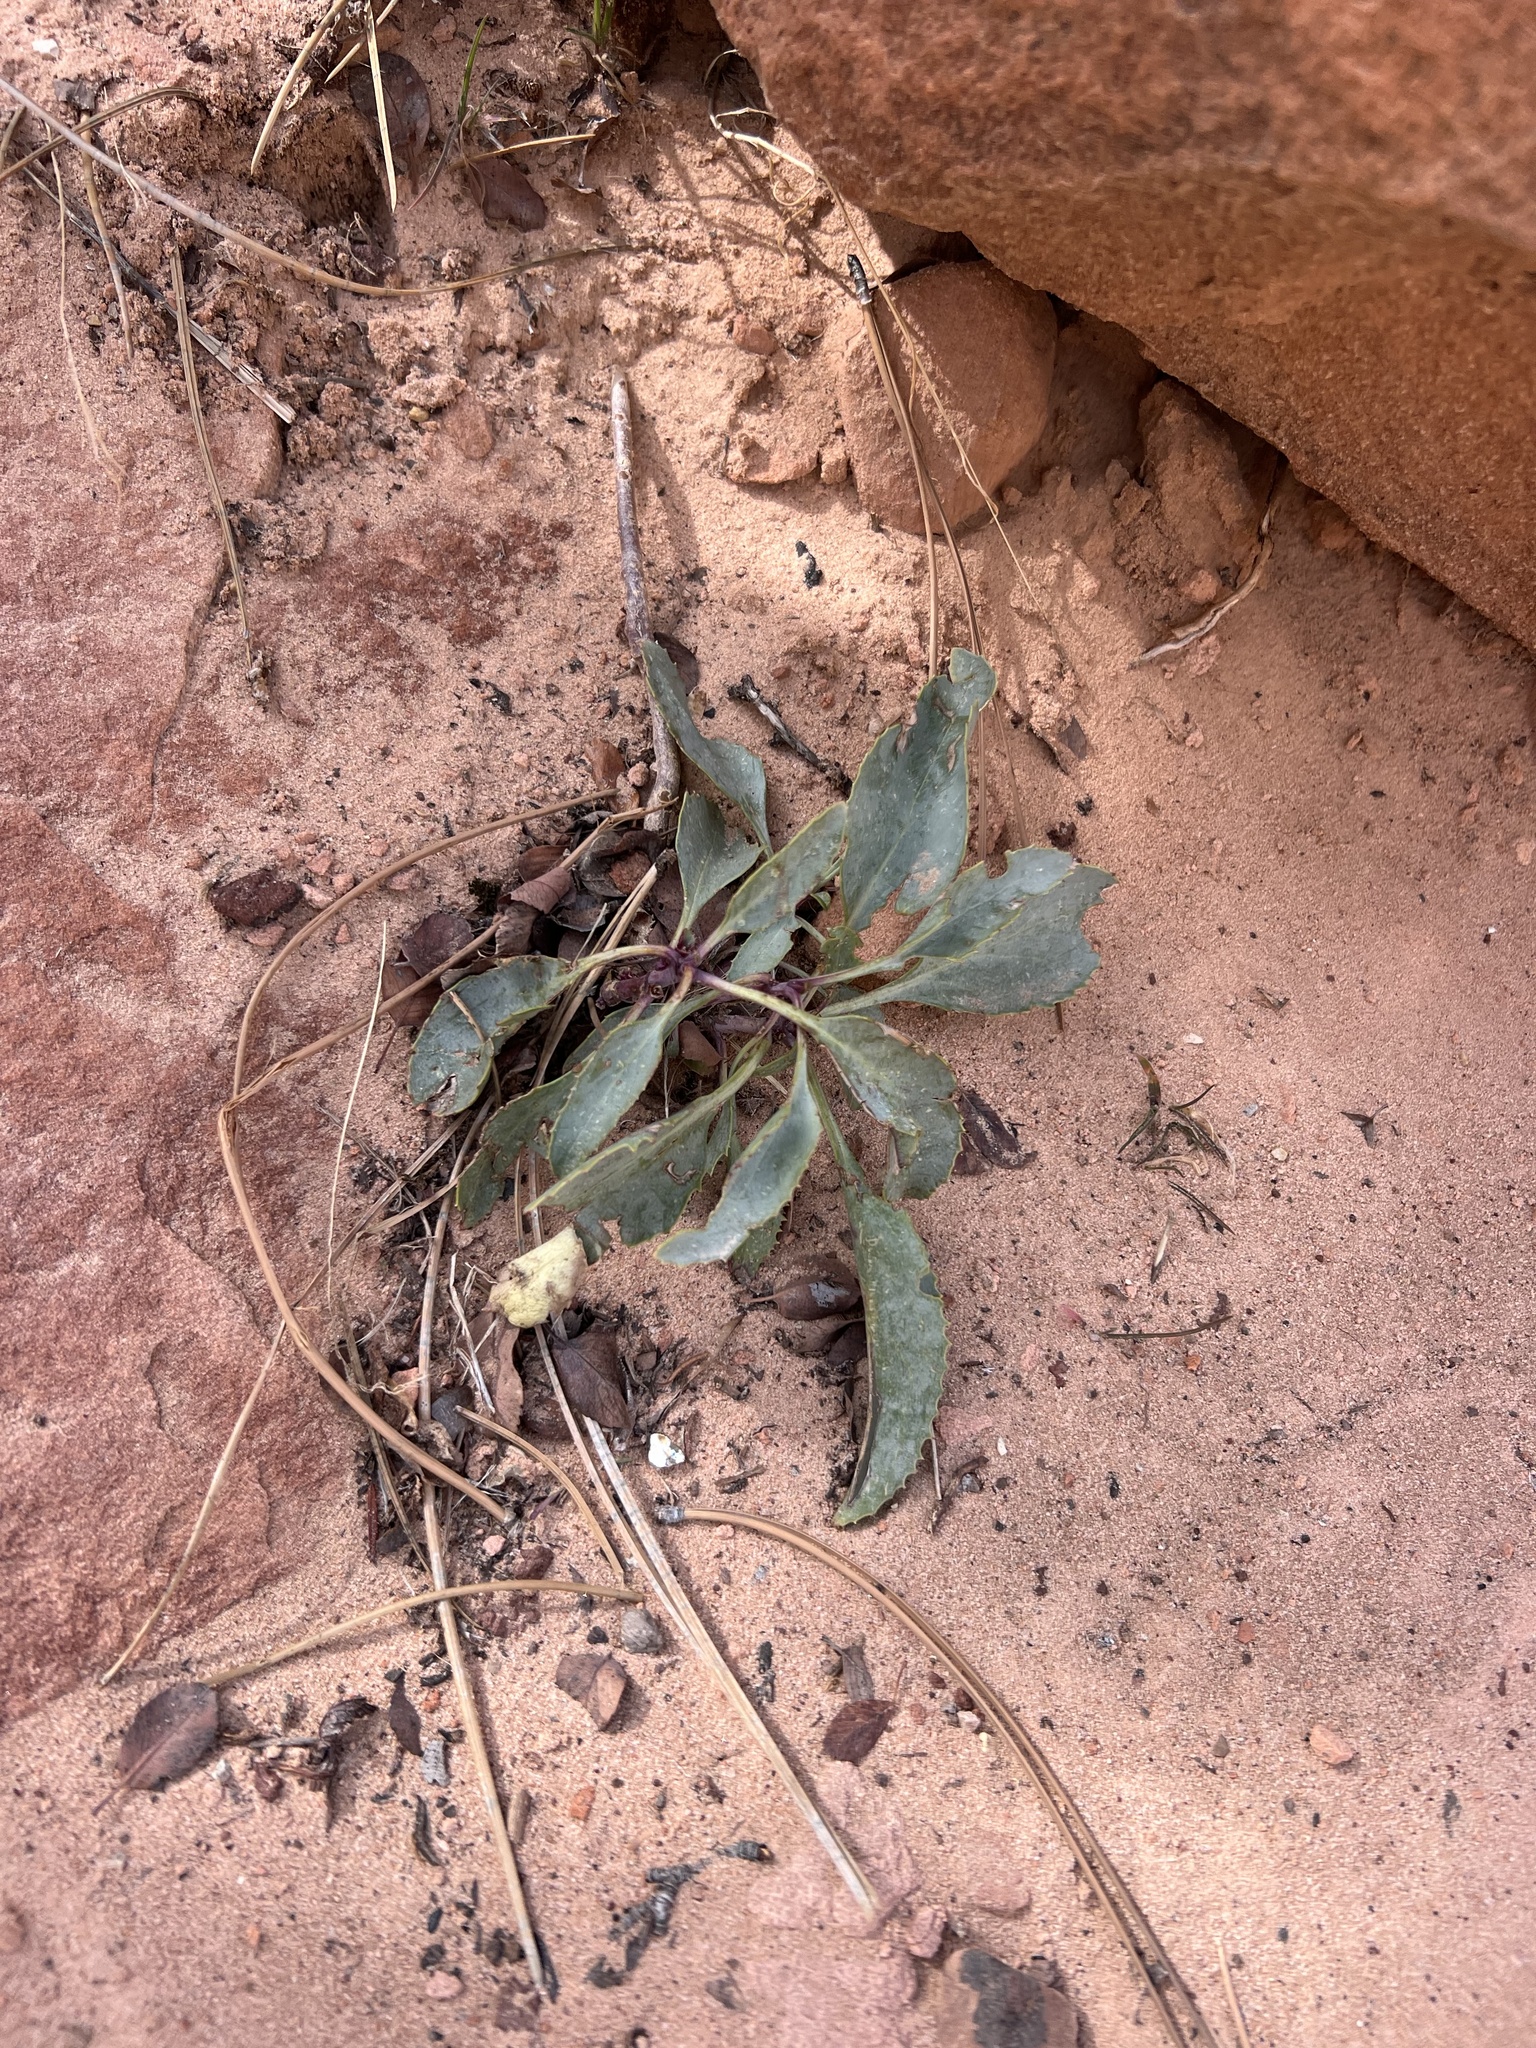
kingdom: Plantae
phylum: Tracheophyta
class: Magnoliopsida
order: Lamiales
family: Plantaginaceae
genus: Penstemon
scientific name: Penstemon palmeri
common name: Palmer penstemon
